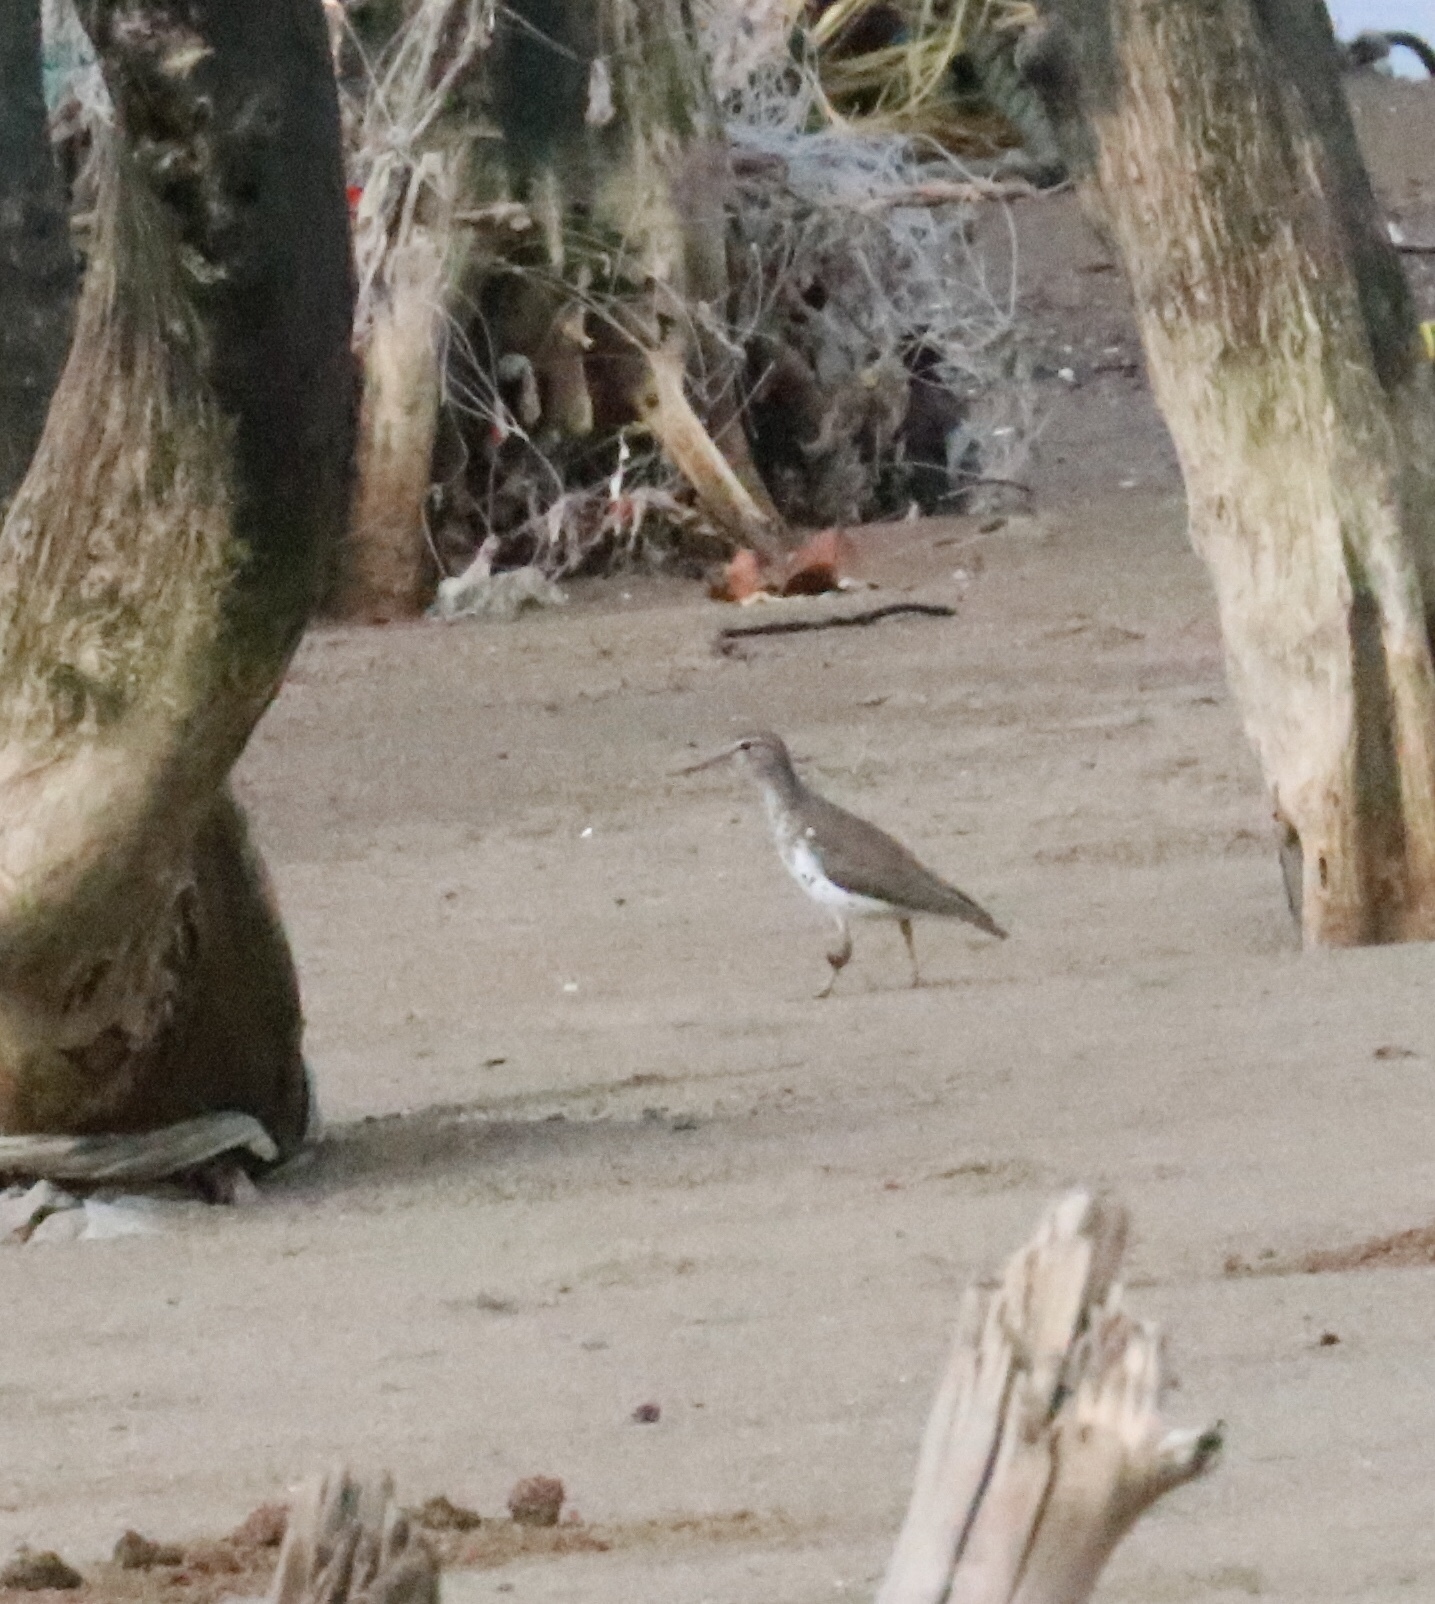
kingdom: Animalia
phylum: Chordata
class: Aves
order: Charadriiformes
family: Scolopacidae
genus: Actitis
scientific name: Actitis macularius
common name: Spotted sandpiper
